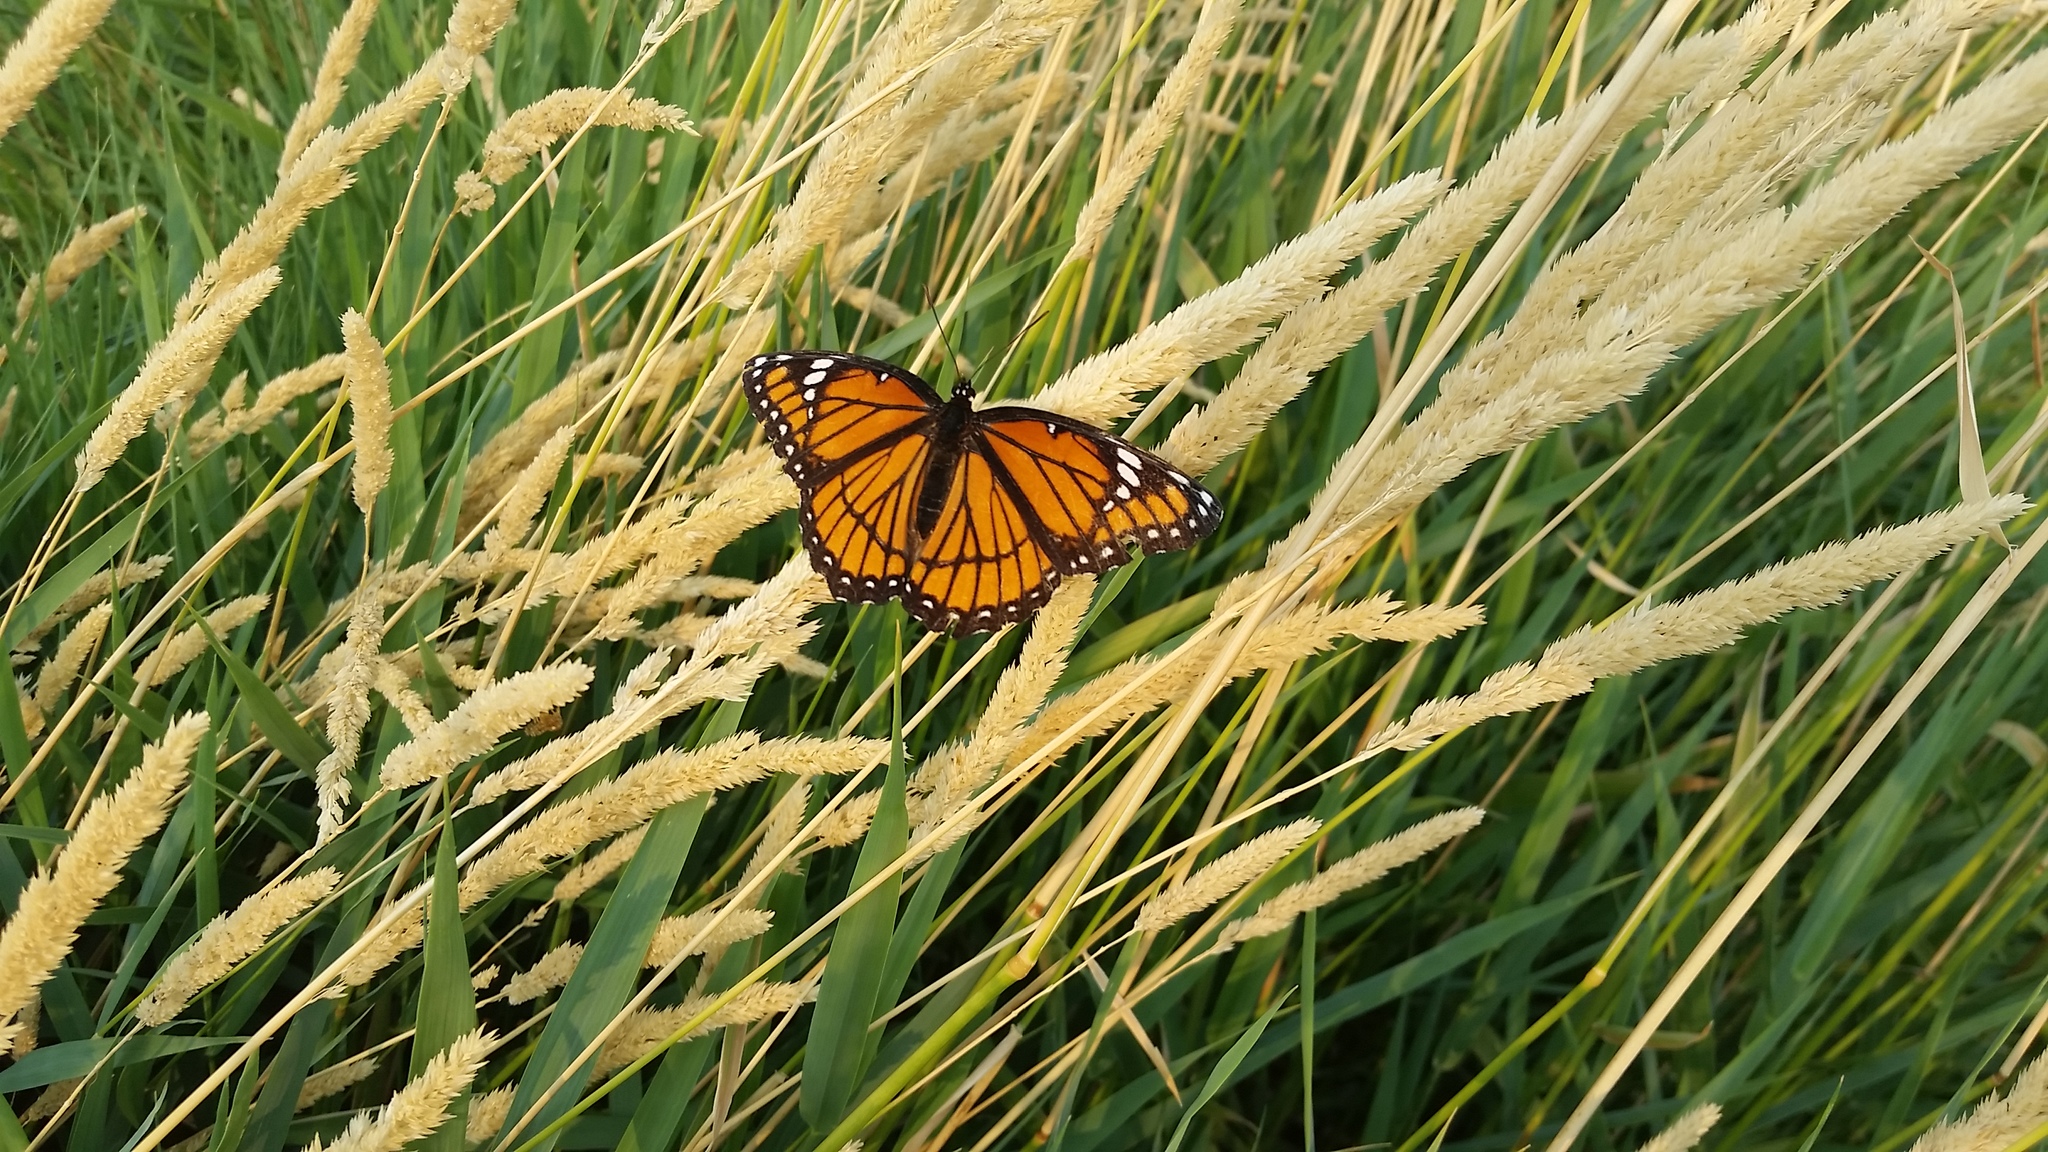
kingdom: Animalia
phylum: Arthropoda
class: Insecta
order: Lepidoptera
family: Nymphalidae
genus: Limenitis
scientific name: Limenitis archippus
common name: Viceroy
